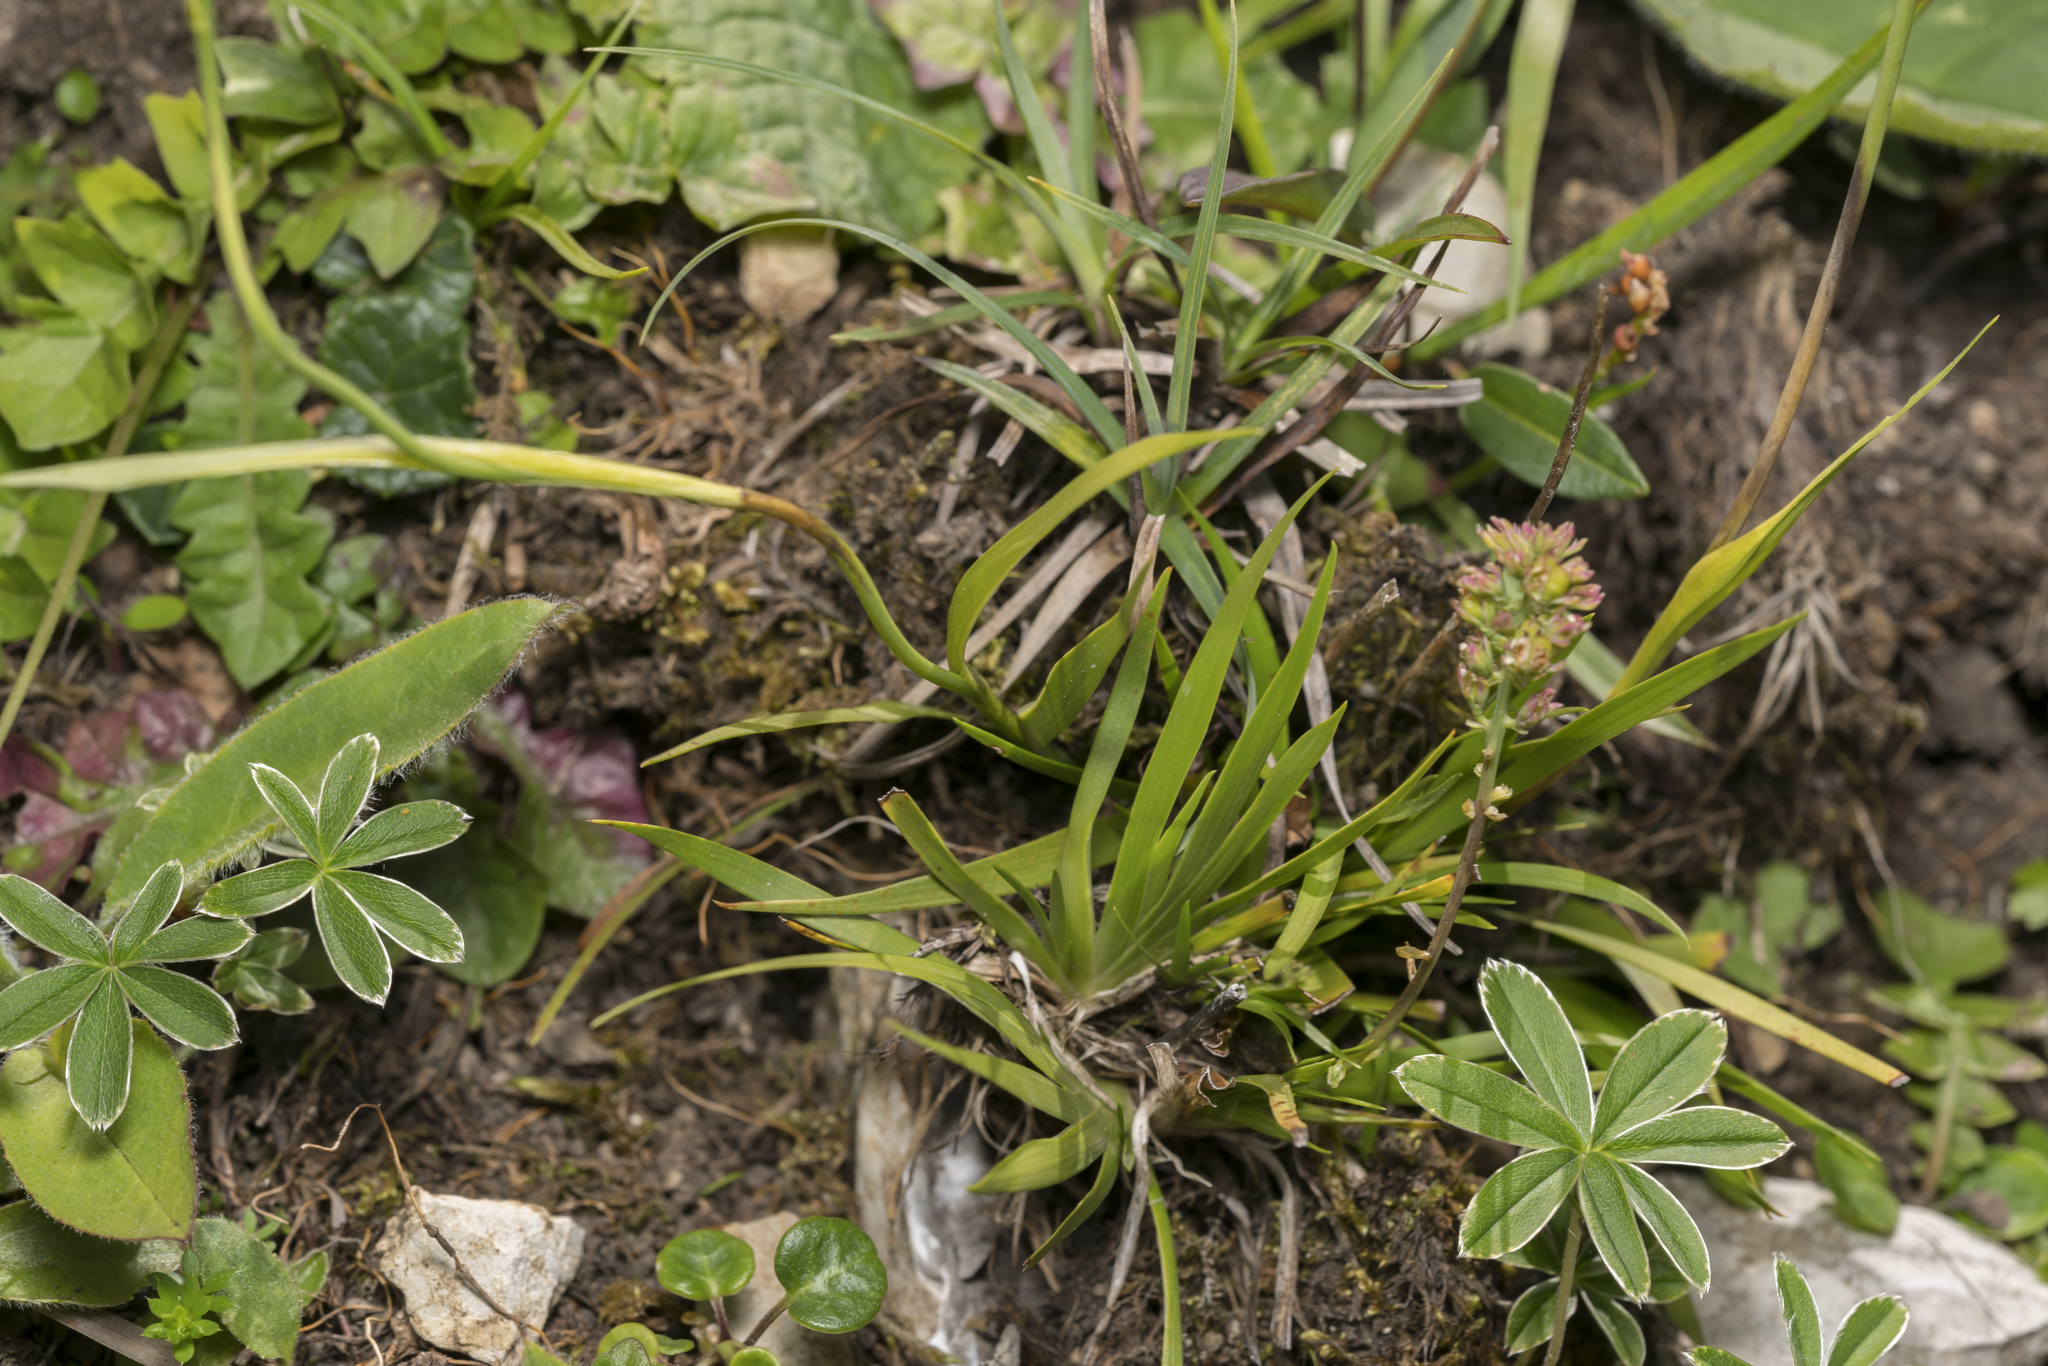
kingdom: Plantae
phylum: Tracheophyta
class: Liliopsida
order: Alismatales
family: Tofieldiaceae
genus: Tofieldia
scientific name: Tofieldia calyculata
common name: German-asphodel
